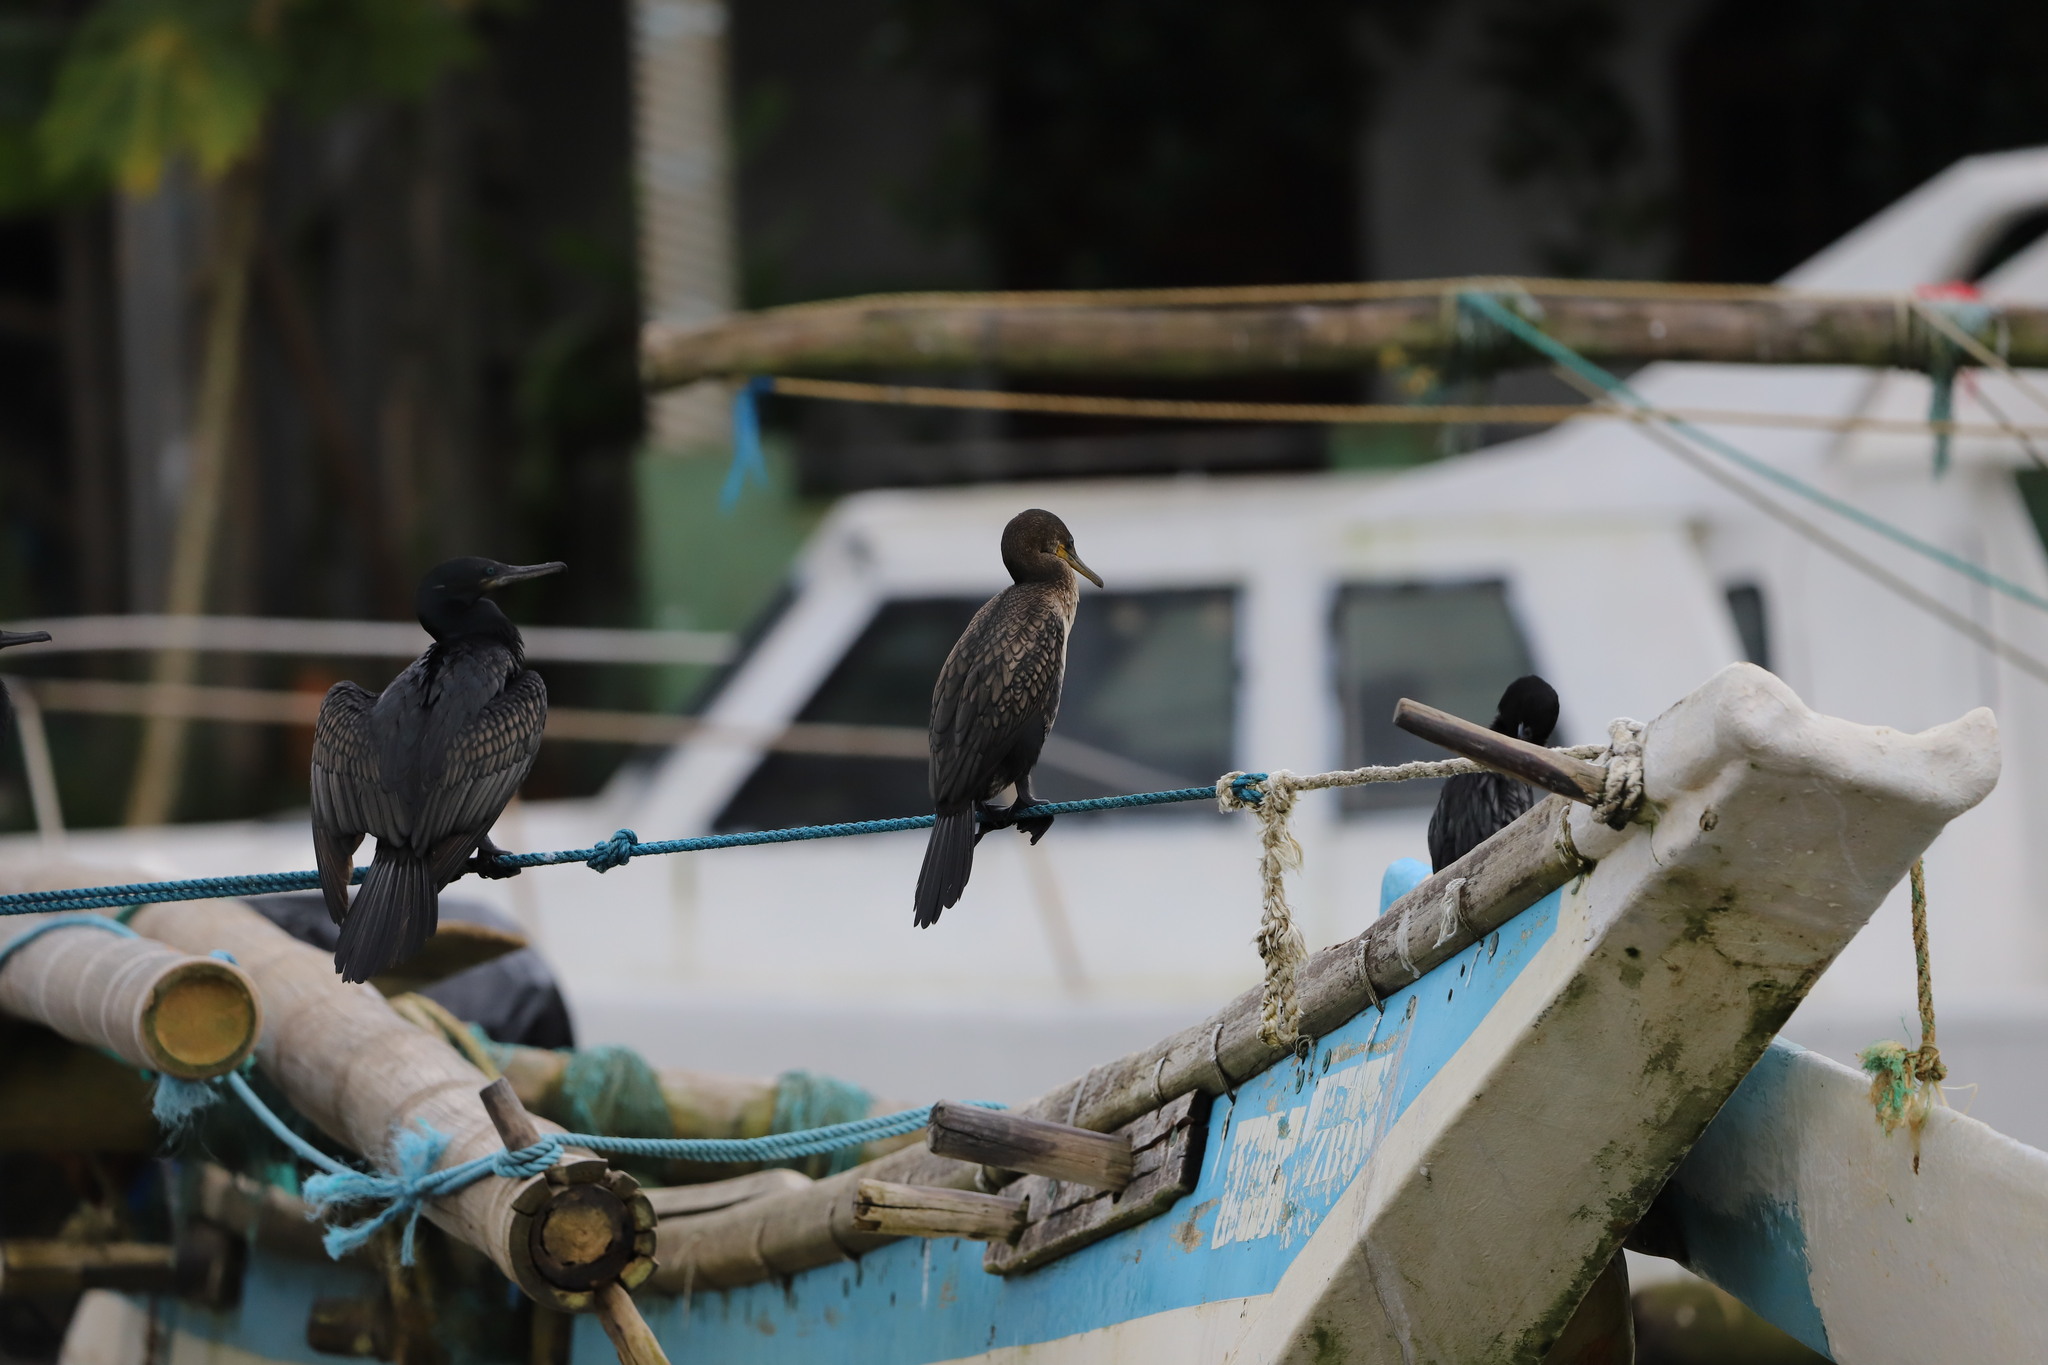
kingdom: Animalia
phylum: Chordata
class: Aves
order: Suliformes
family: Phalacrocoracidae
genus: Phalacrocorax
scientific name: Phalacrocorax fuscicollis
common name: Indian cormorant
